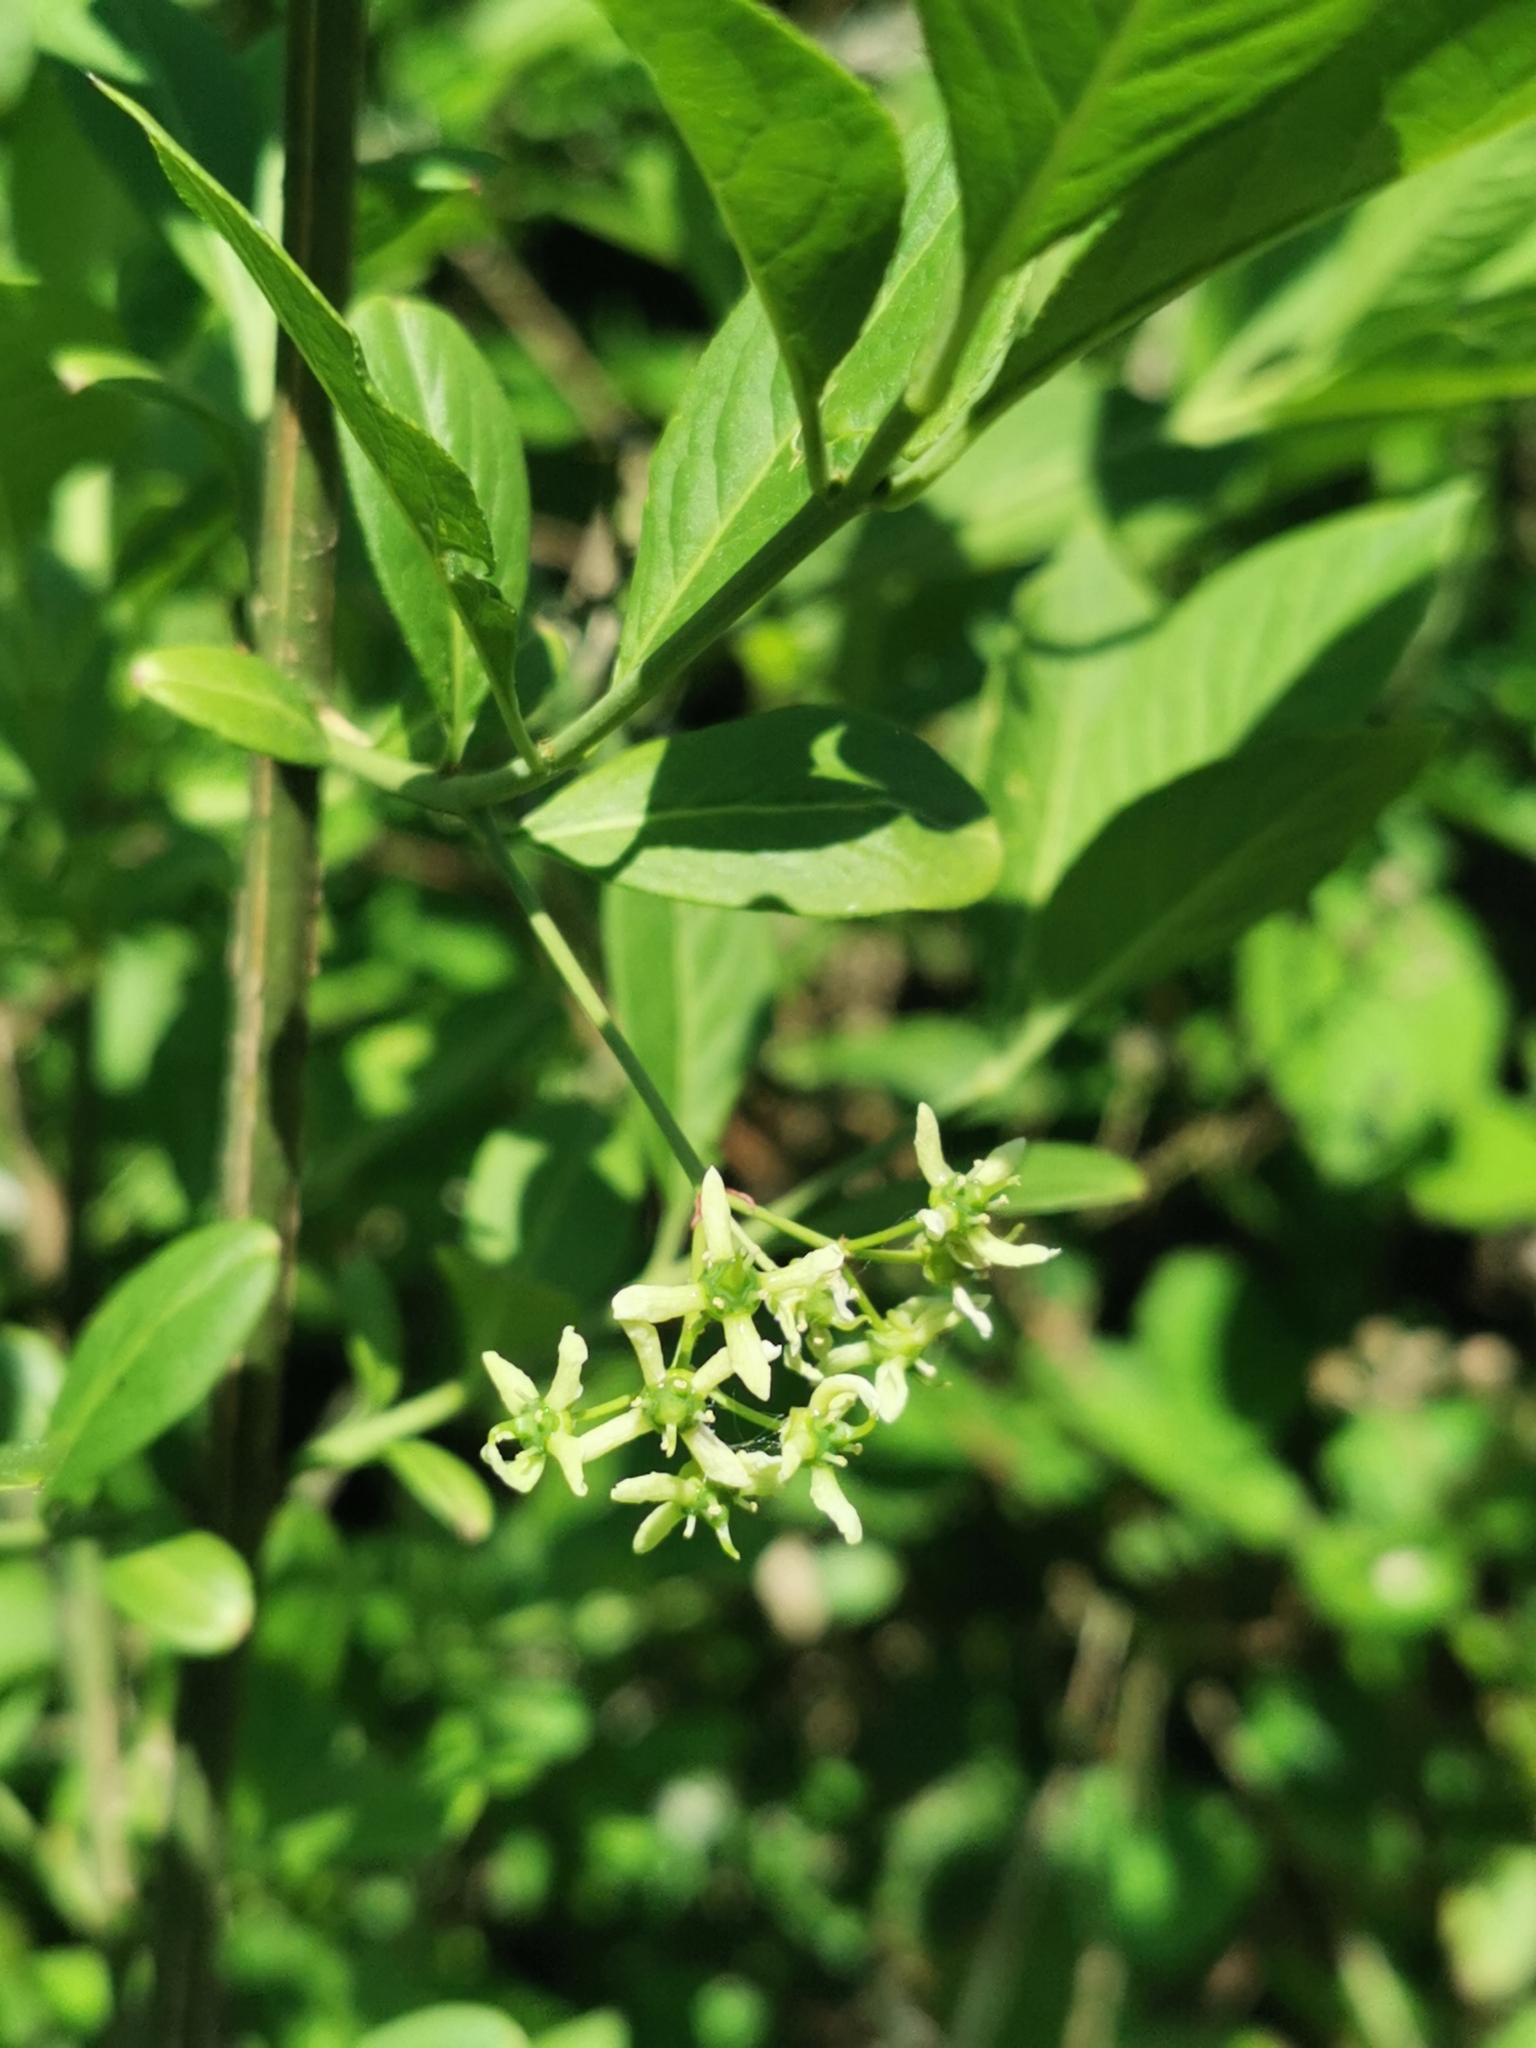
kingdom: Plantae
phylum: Tracheophyta
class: Magnoliopsida
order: Celastrales
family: Celastraceae
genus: Euonymus
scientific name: Euonymus europaeus
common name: Spindle
